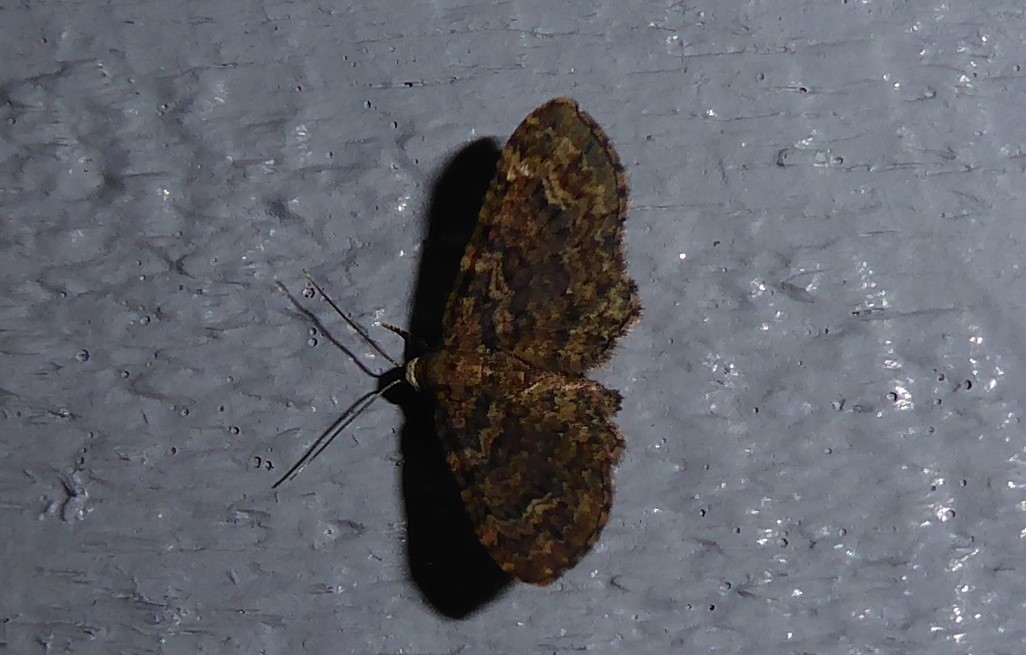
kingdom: Animalia
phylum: Arthropoda
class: Insecta
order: Lepidoptera
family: Geometridae
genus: Pasiphilodes
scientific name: Pasiphilodes testulata
